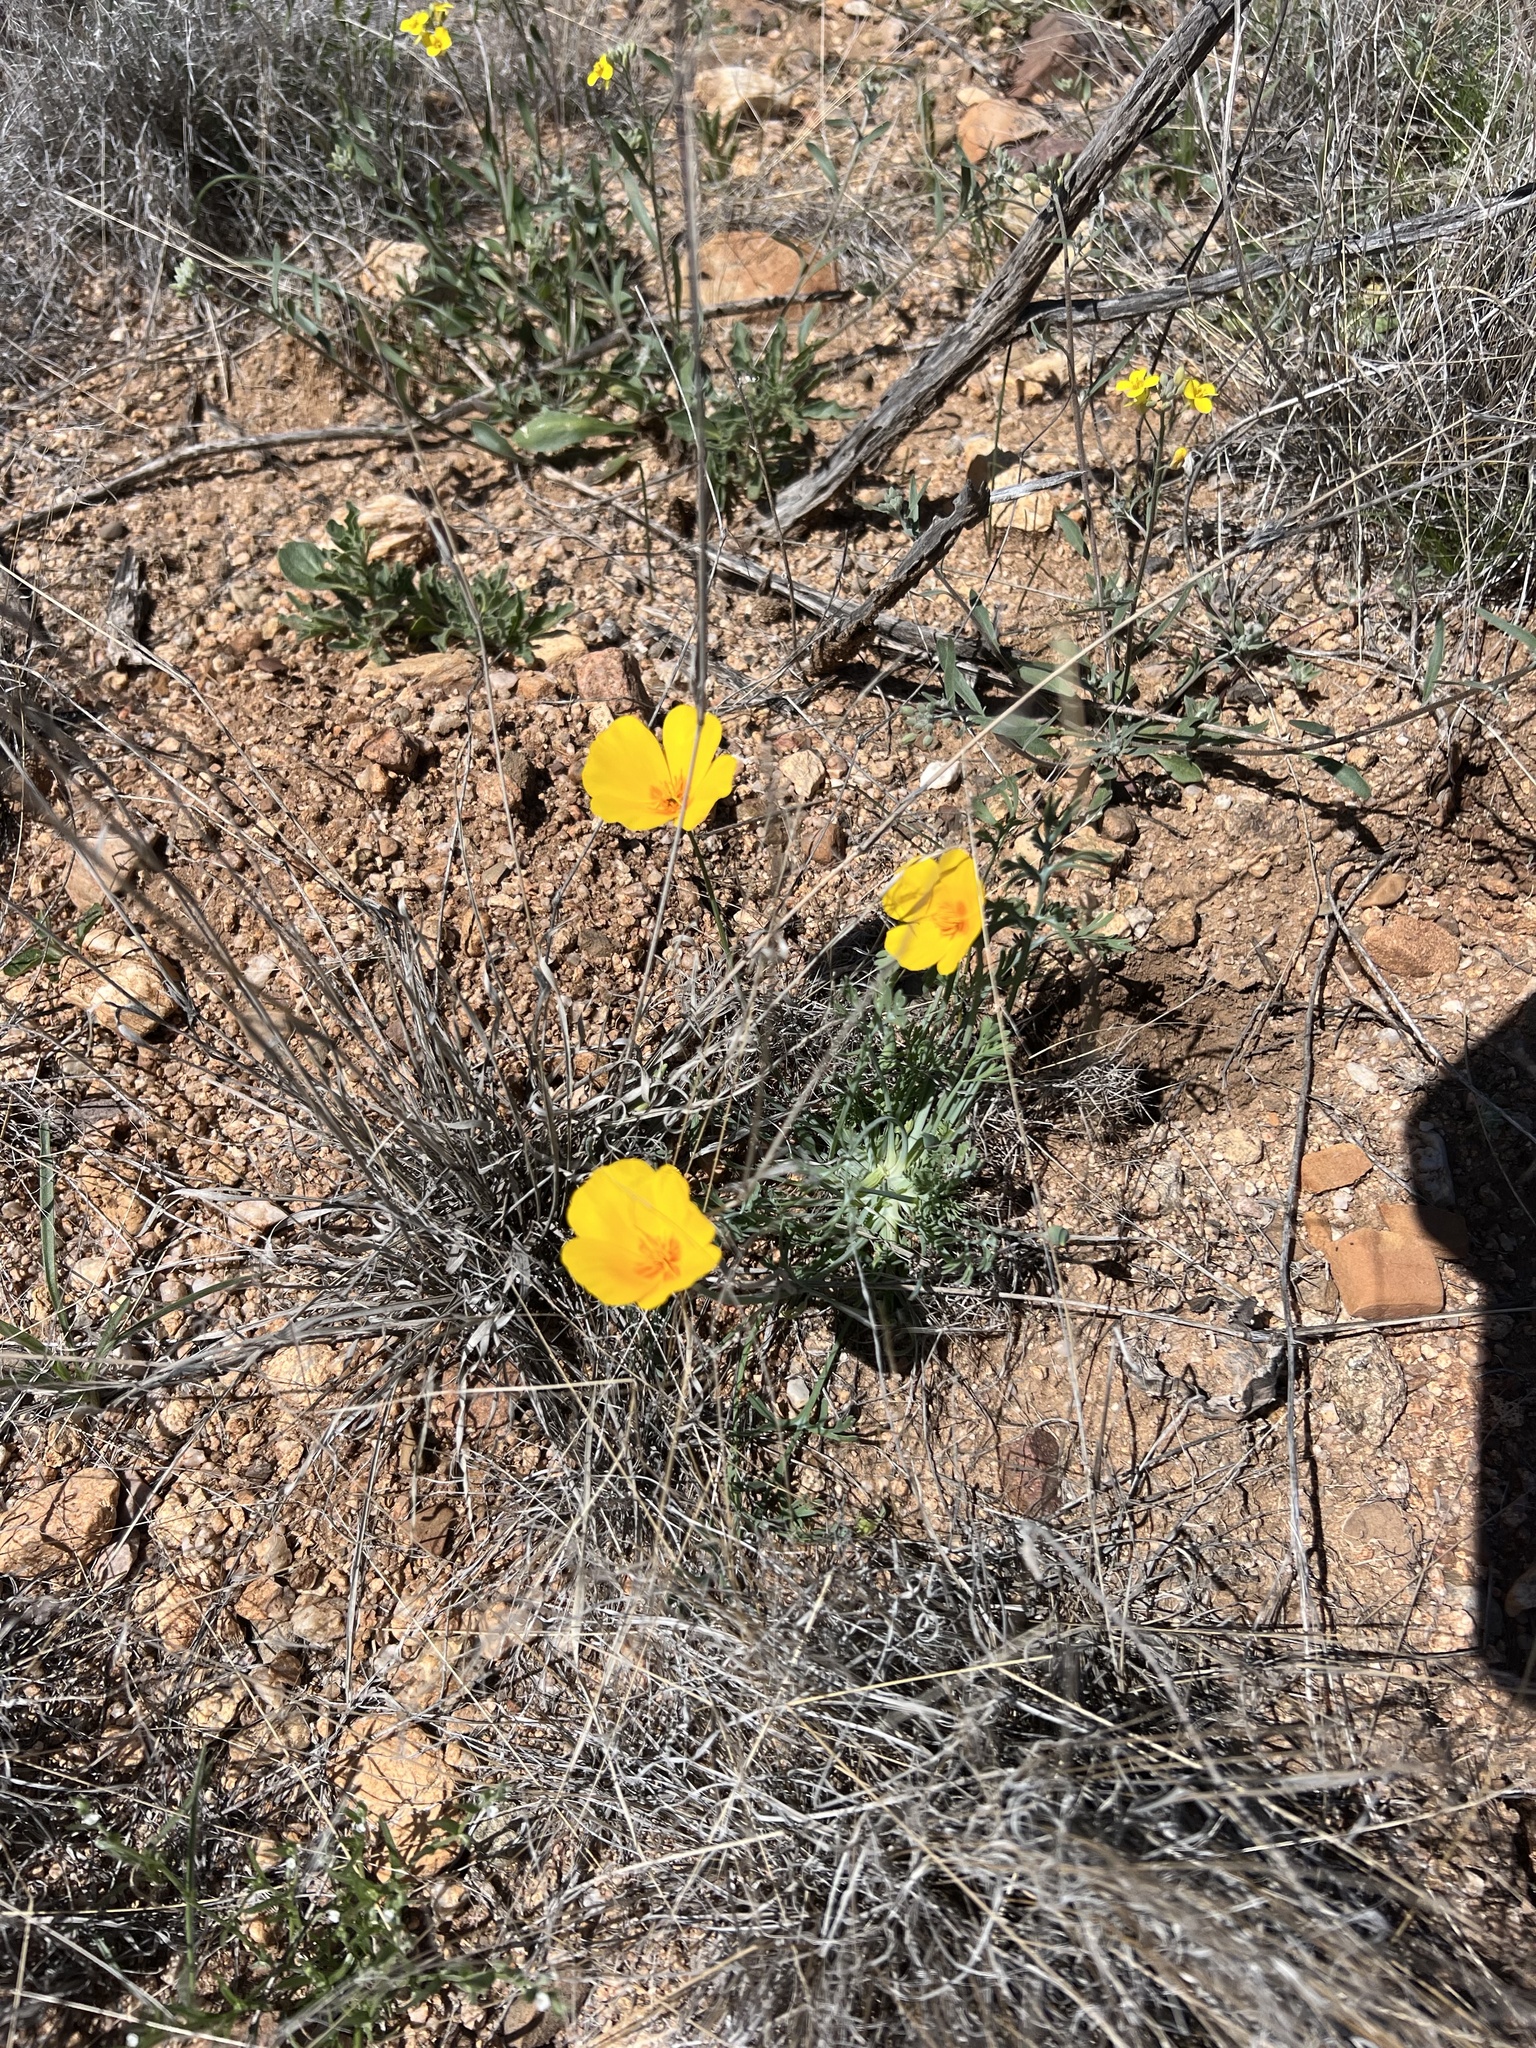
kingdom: Plantae
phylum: Tracheophyta
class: Magnoliopsida
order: Ranunculales
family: Papaveraceae
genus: Eschscholzia
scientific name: Eschscholzia californica
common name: California poppy
